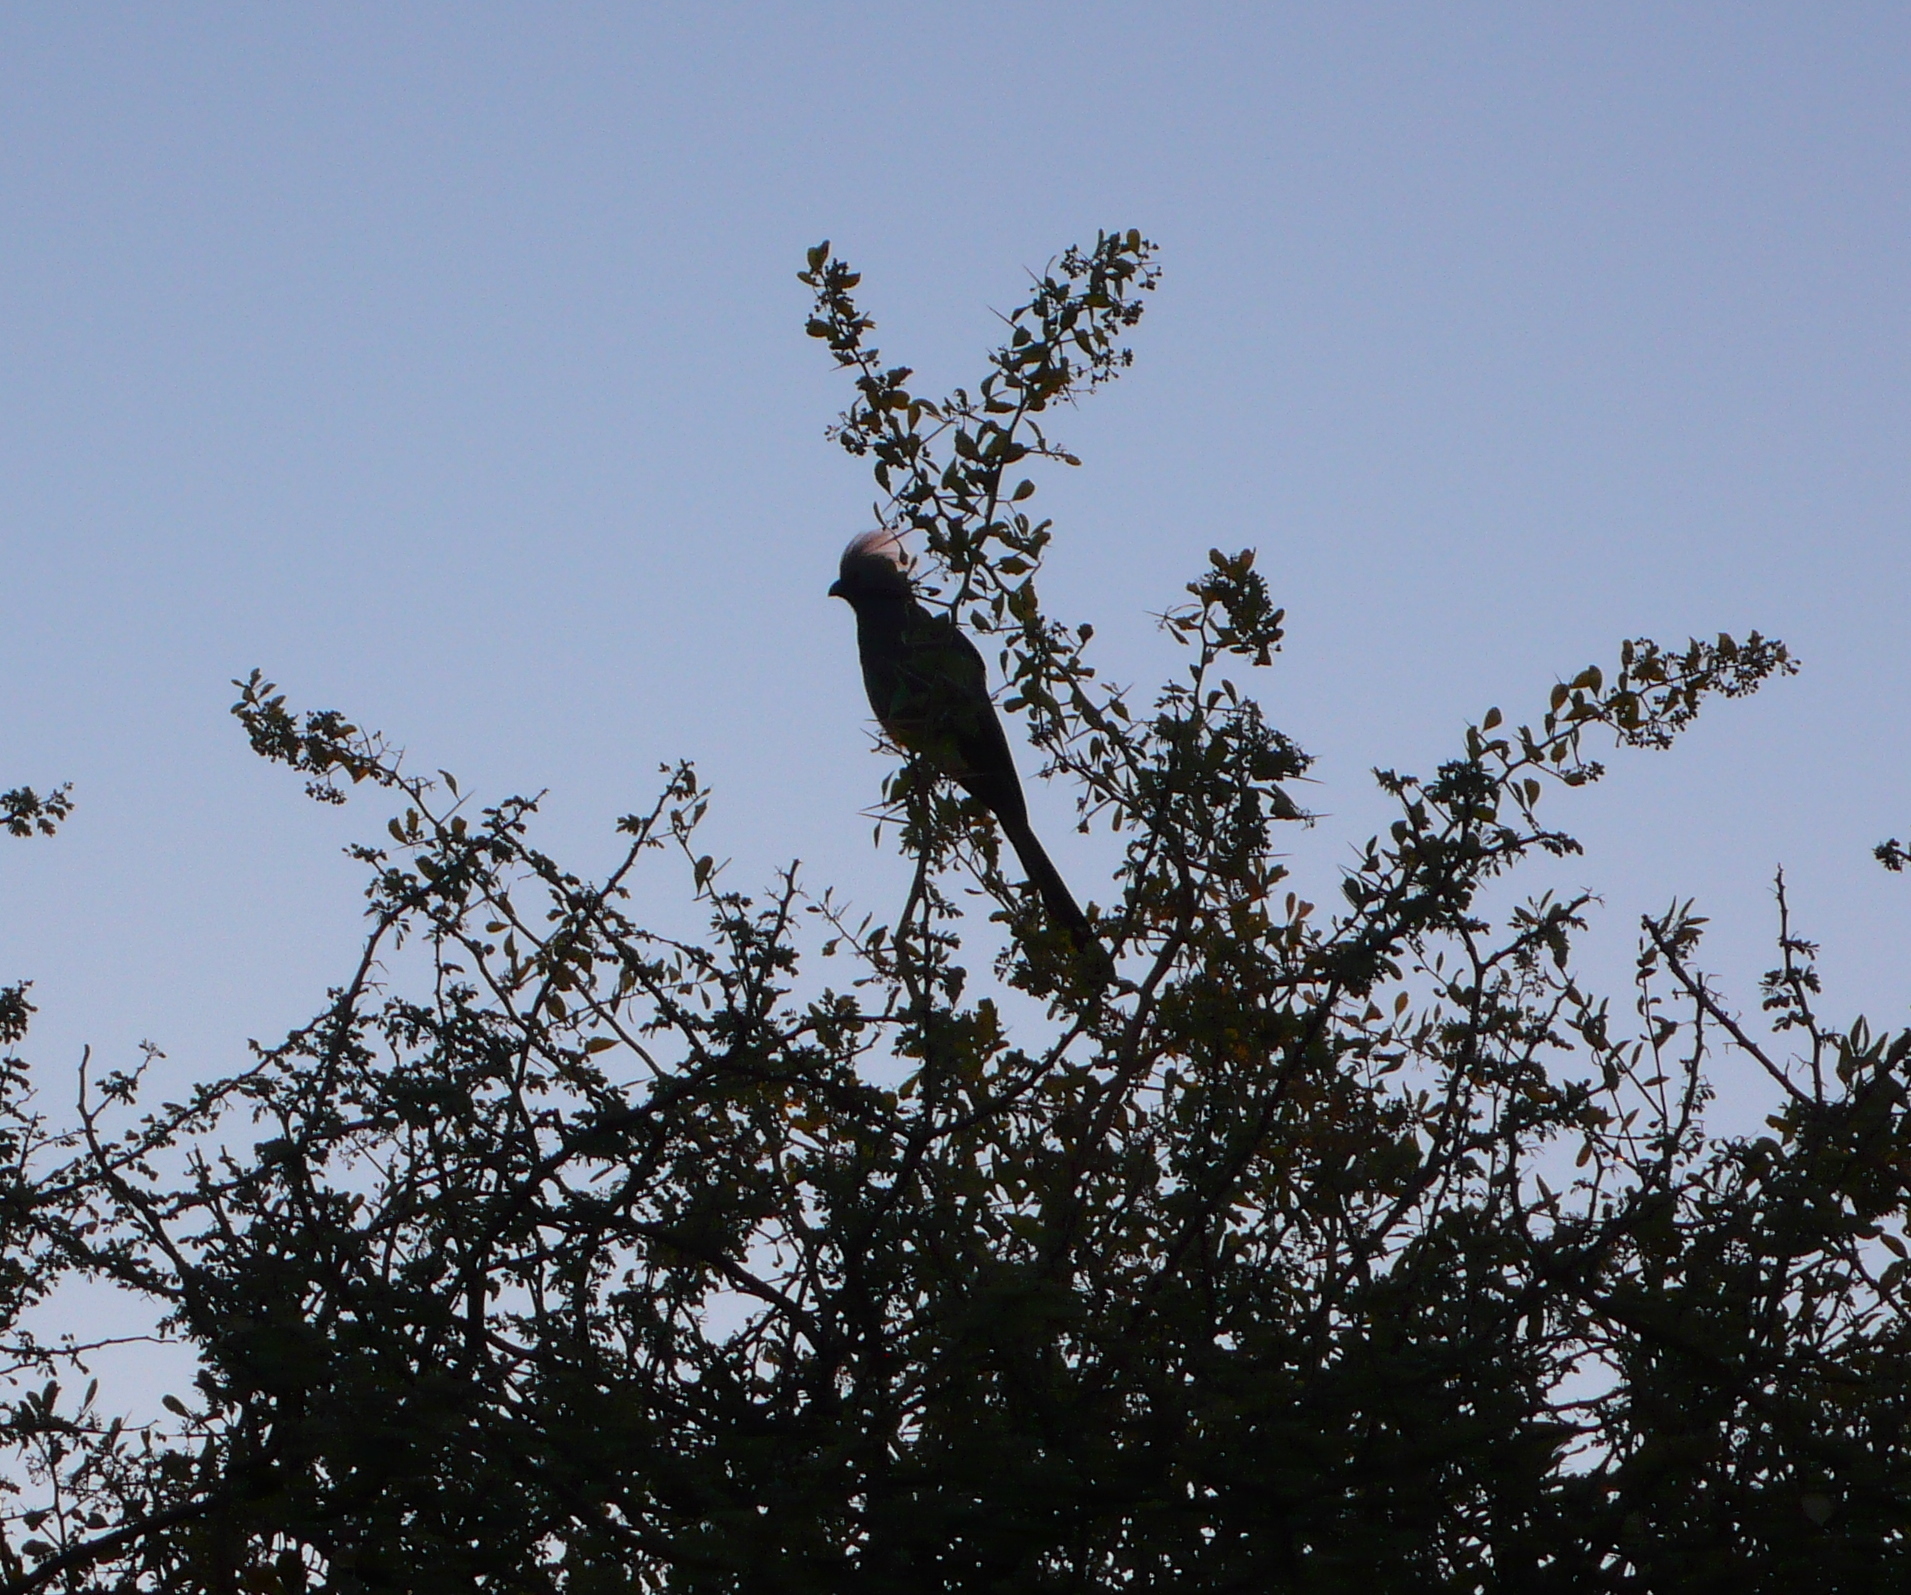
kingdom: Animalia
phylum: Chordata
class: Aves
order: Musophagiformes
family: Musophagidae
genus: Corythaixoides
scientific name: Corythaixoides concolor
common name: Grey go-away-bird
